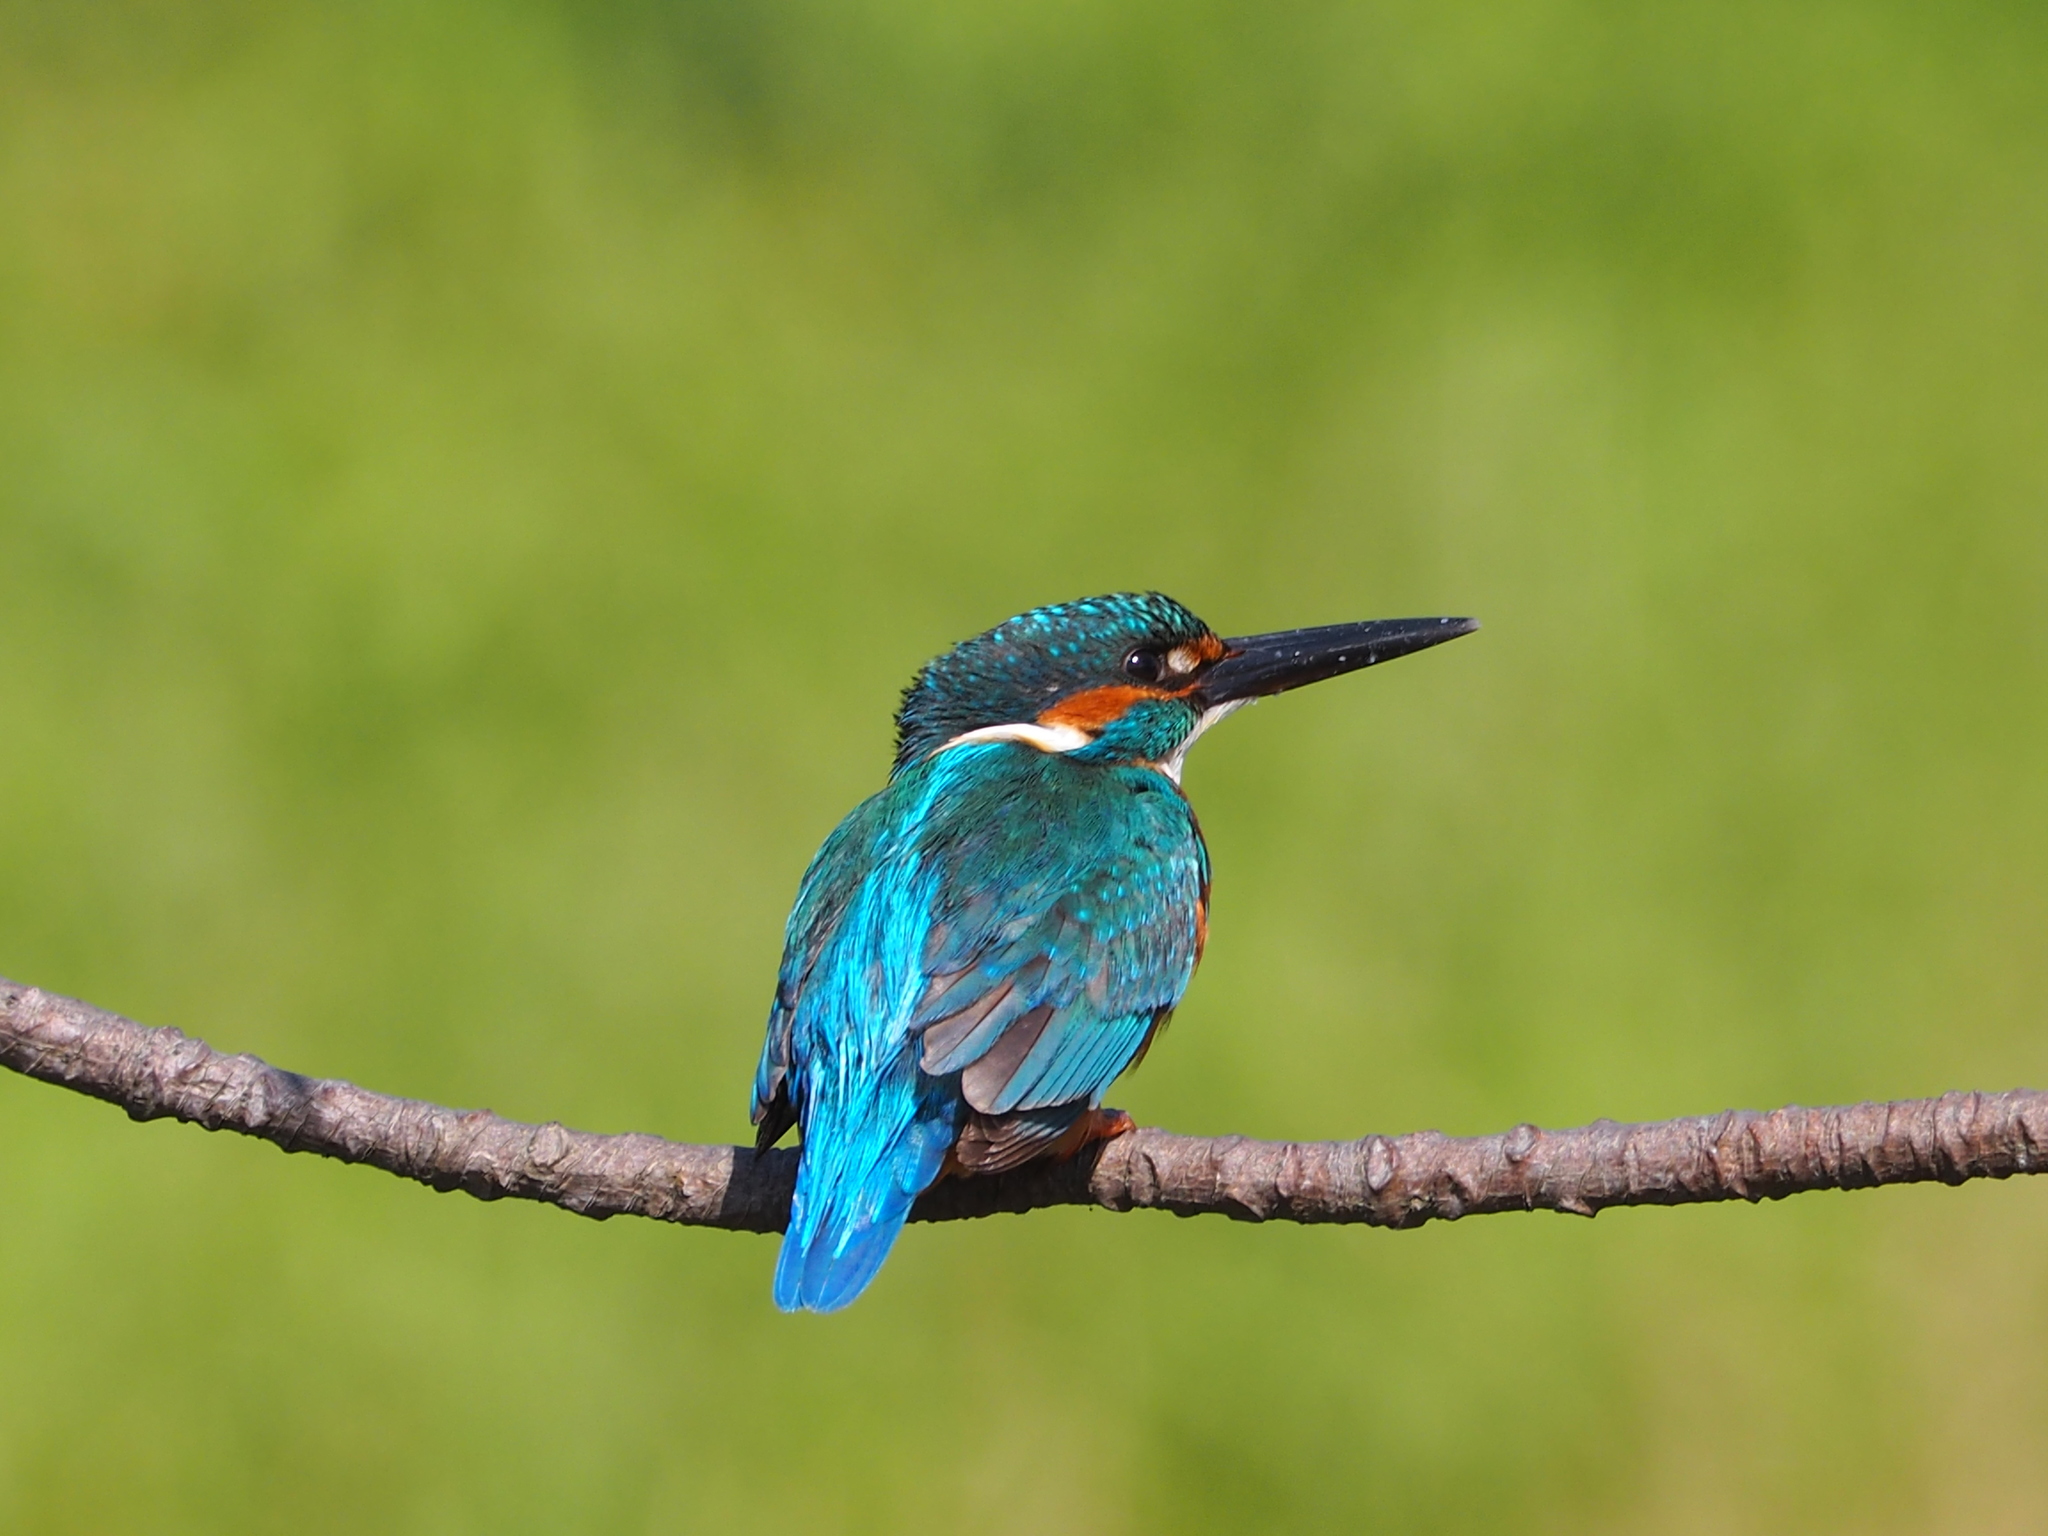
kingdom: Animalia
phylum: Chordata
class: Aves
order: Coraciiformes
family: Alcedinidae
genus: Alcedo
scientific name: Alcedo atthis
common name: Common kingfisher
